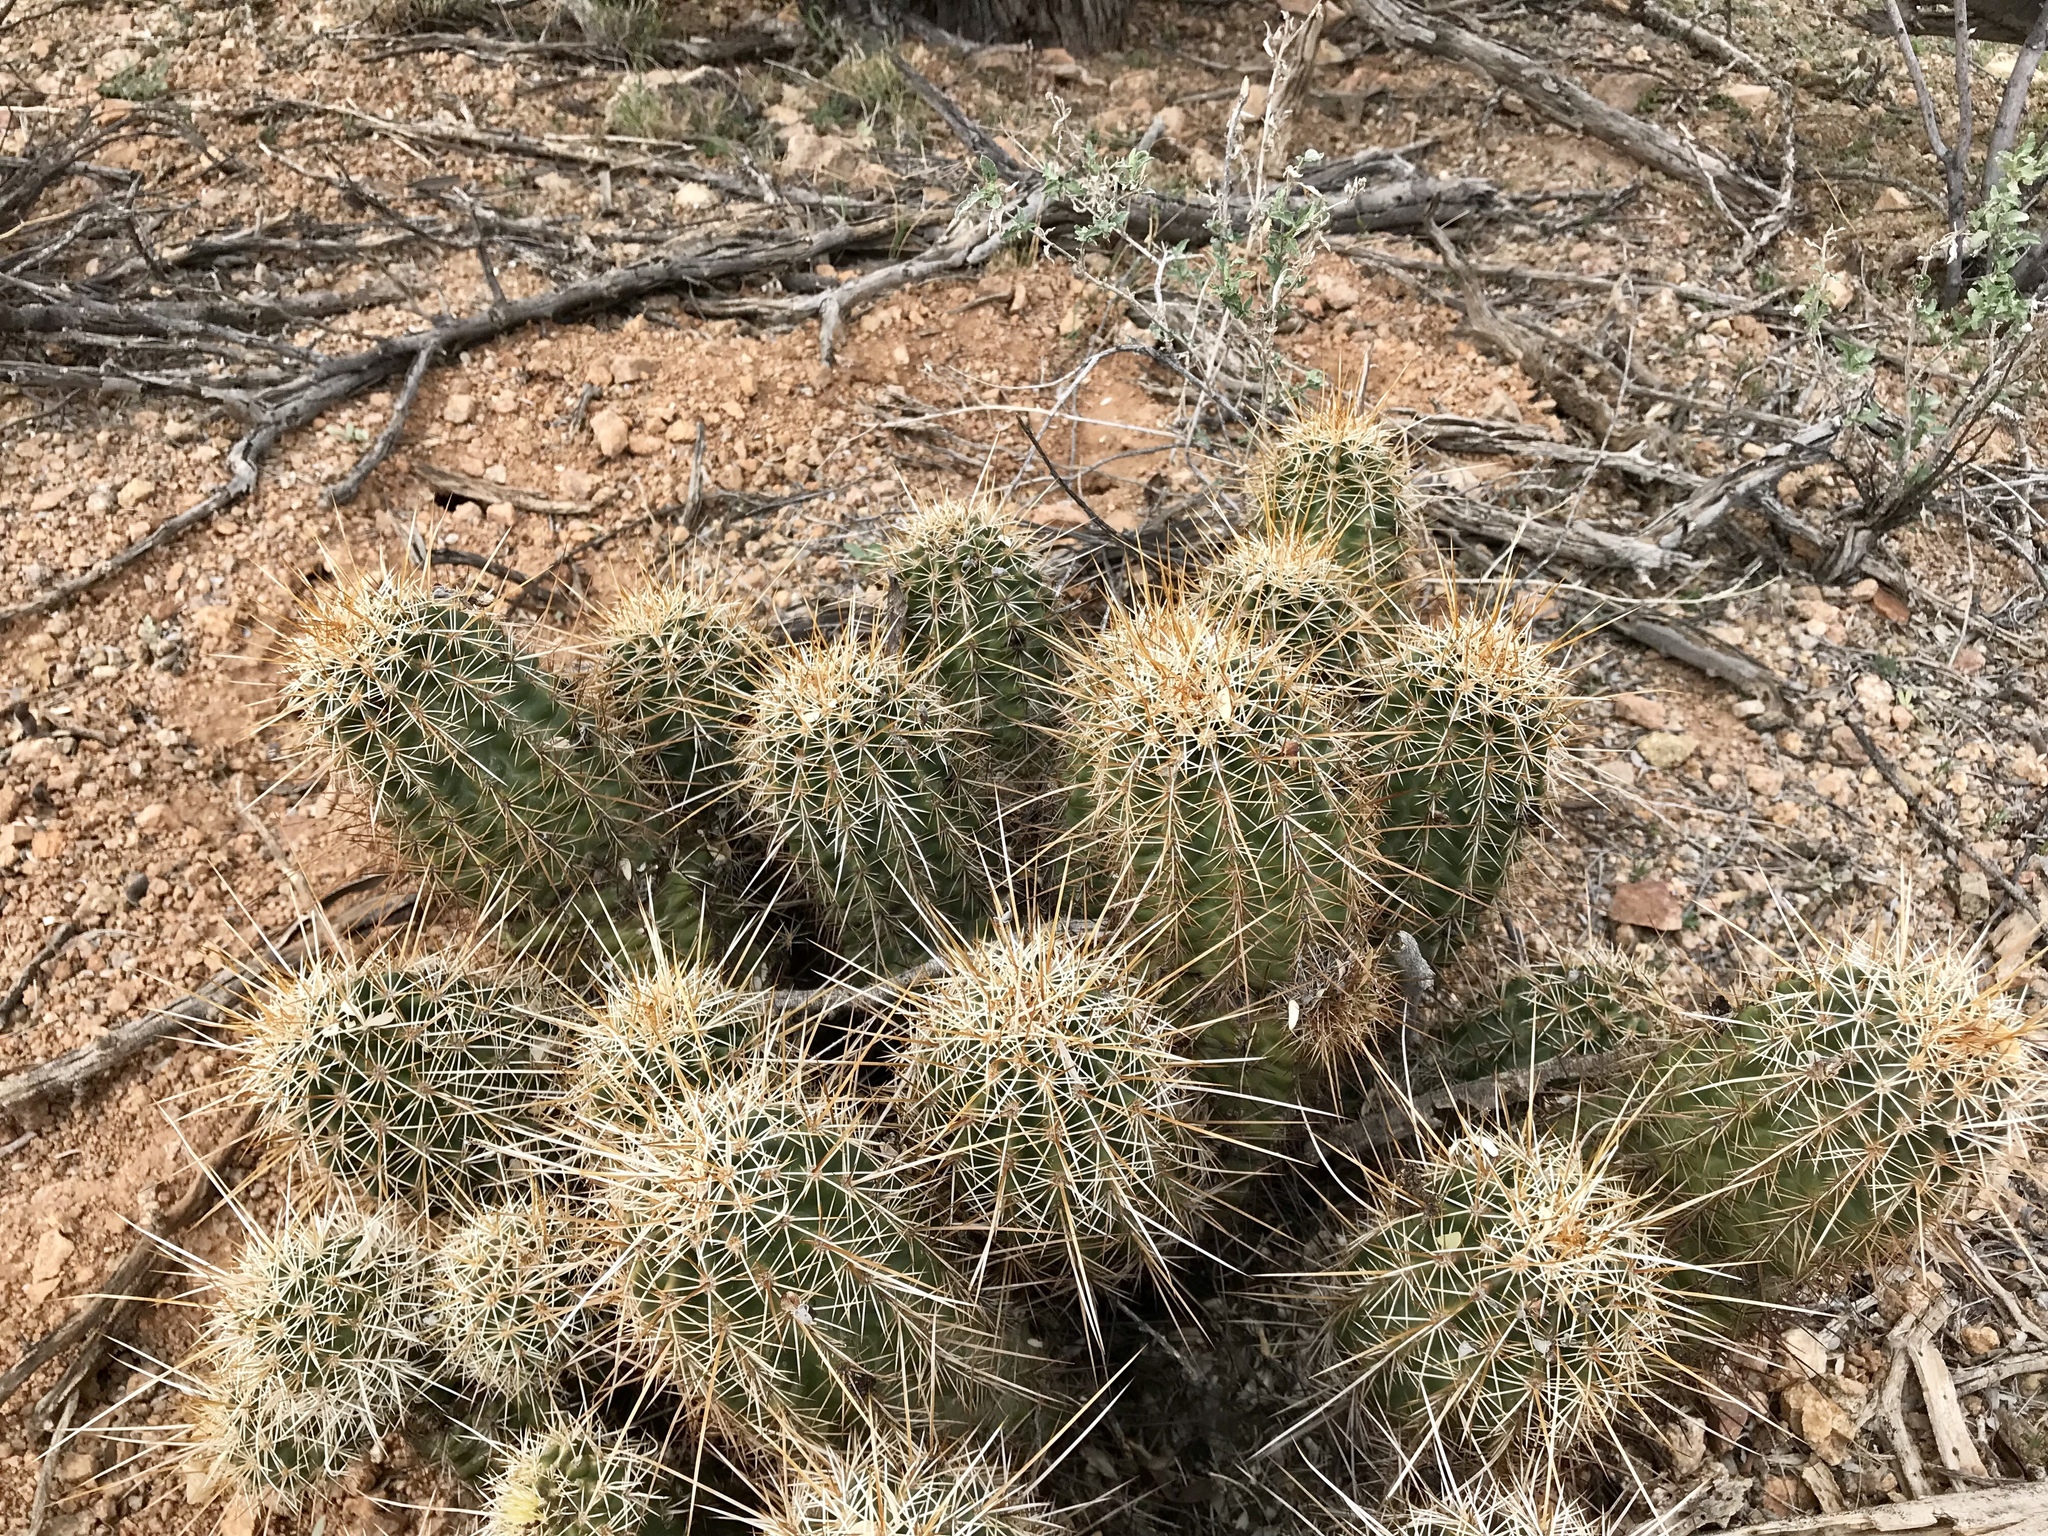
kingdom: Plantae
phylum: Tracheophyta
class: Magnoliopsida
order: Caryophyllales
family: Cactaceae
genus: Echinocereus
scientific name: Echinocereus fasciculatus
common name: Bundle hedgehog
